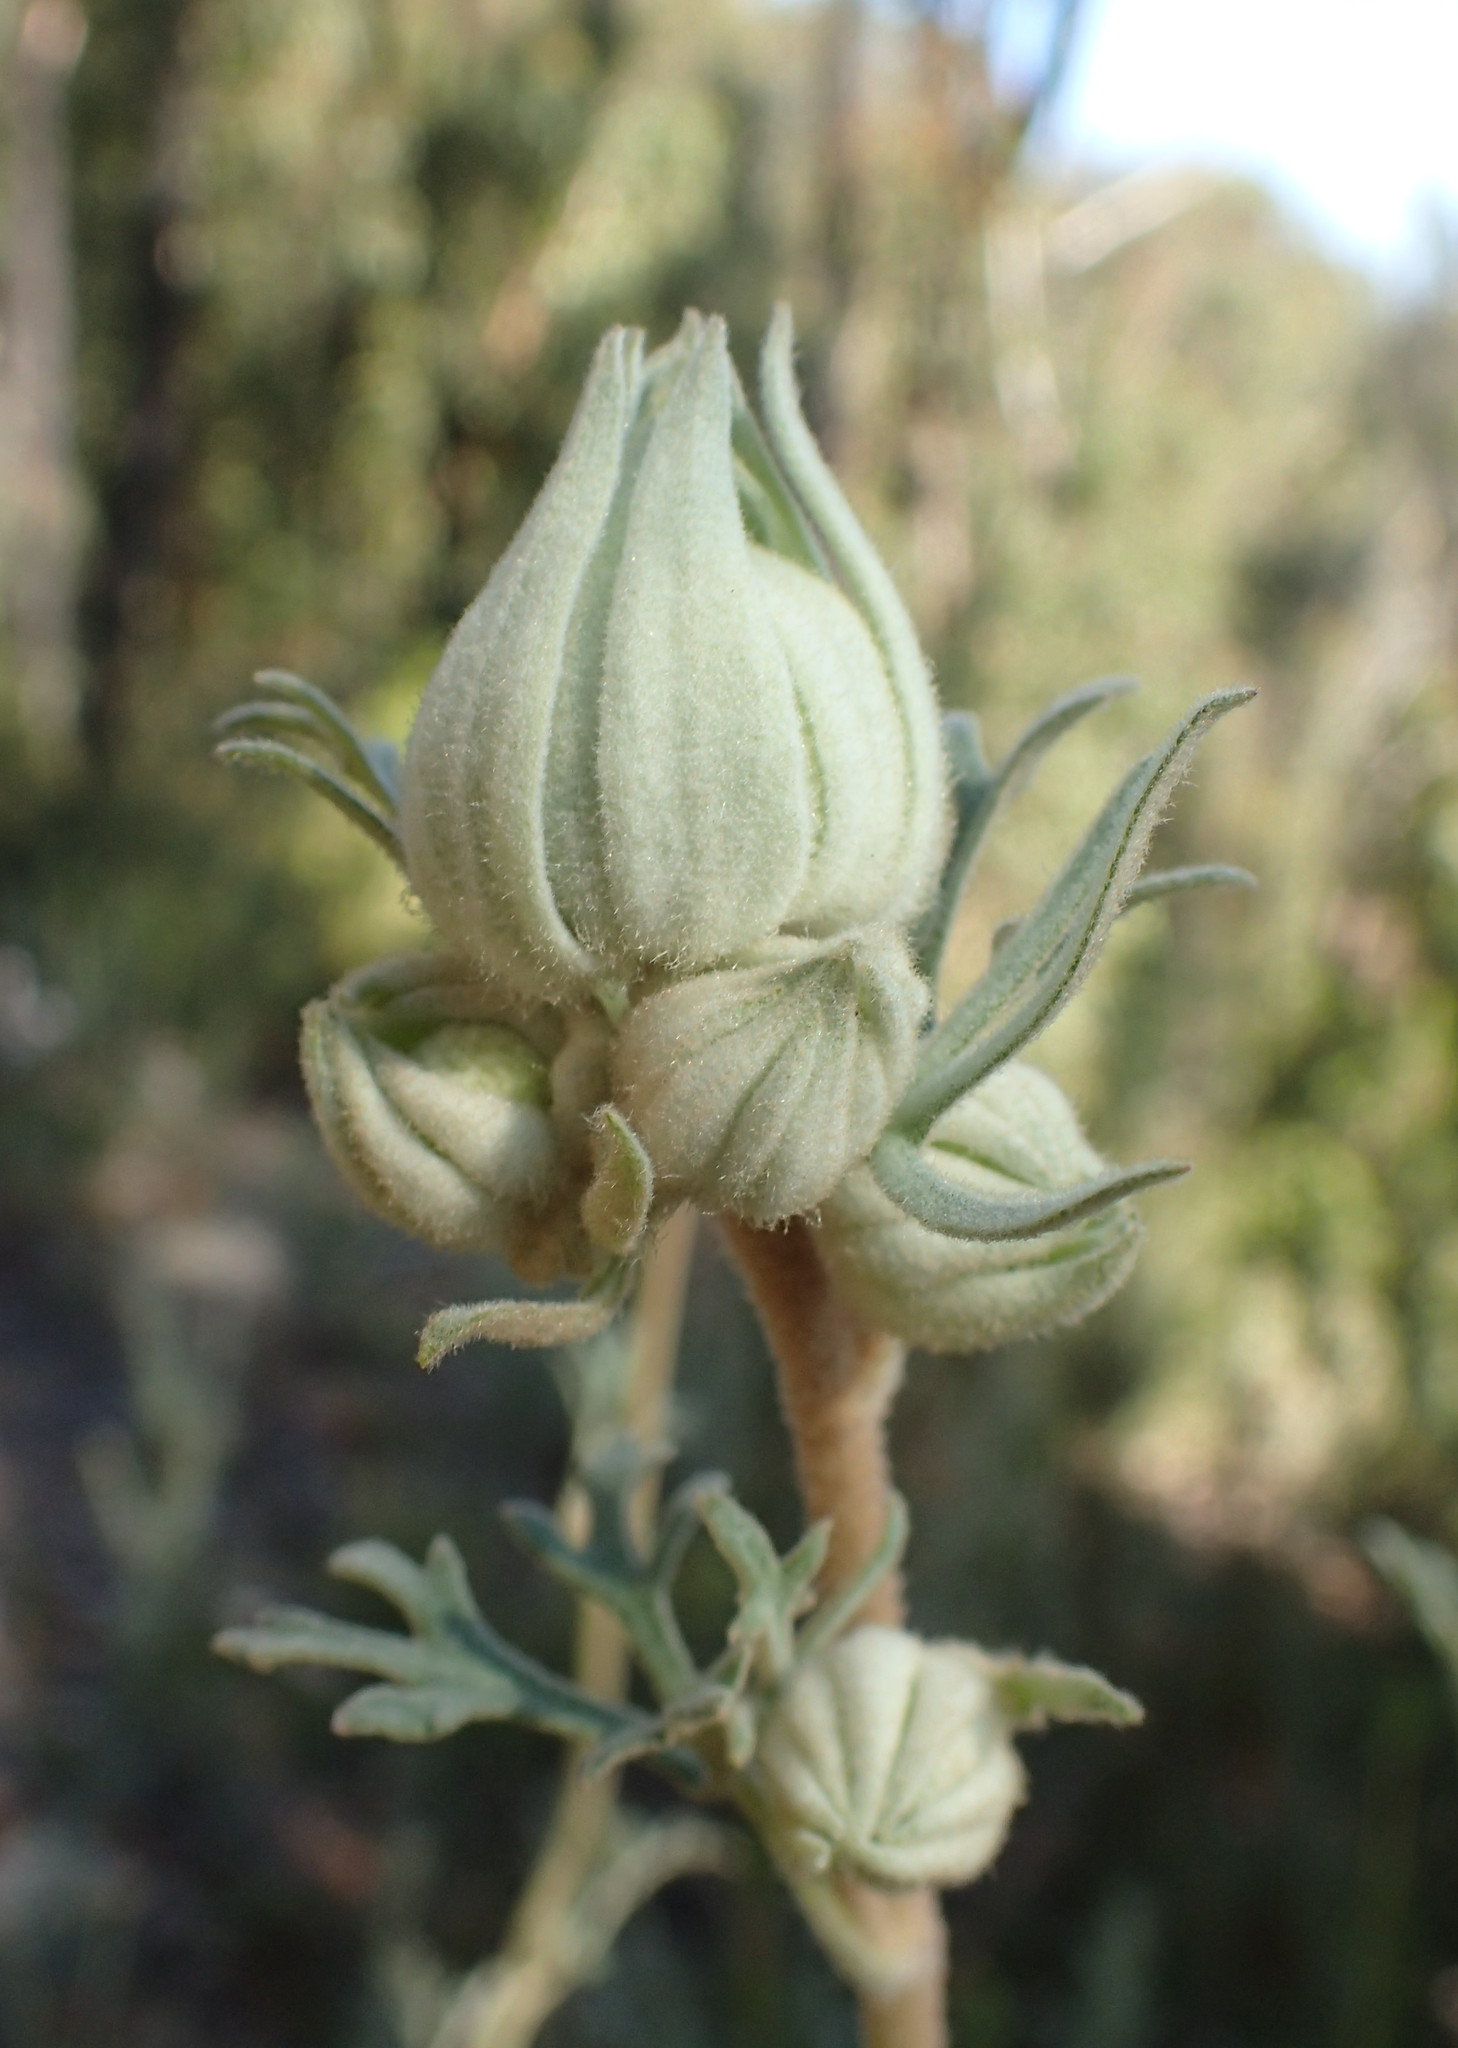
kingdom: Plantae
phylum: Tracheophyta
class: Magnoliopsida
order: Apiales
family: Apiaceae
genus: Actinotus
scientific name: Actinotus helianthi
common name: Flannel-flower
